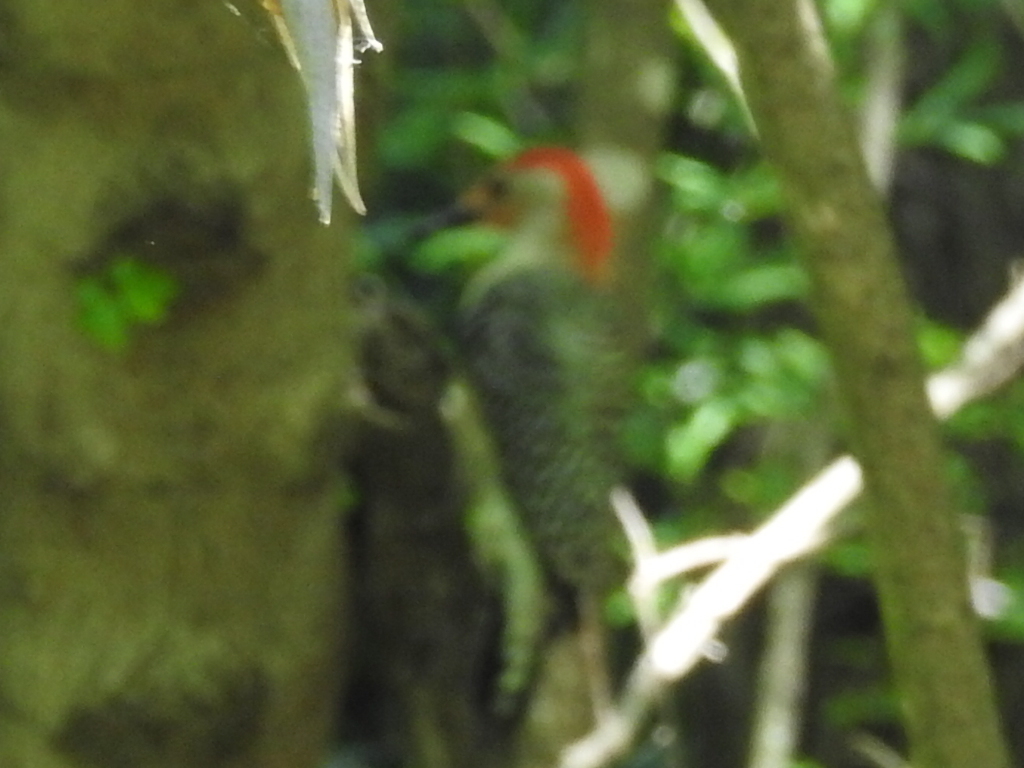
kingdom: Animalia
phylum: Chordata
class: Aves
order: Piciformes
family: Picidae
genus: Melanerpes
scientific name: Melanerpes carolinus
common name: Red-bellied woodpecker
